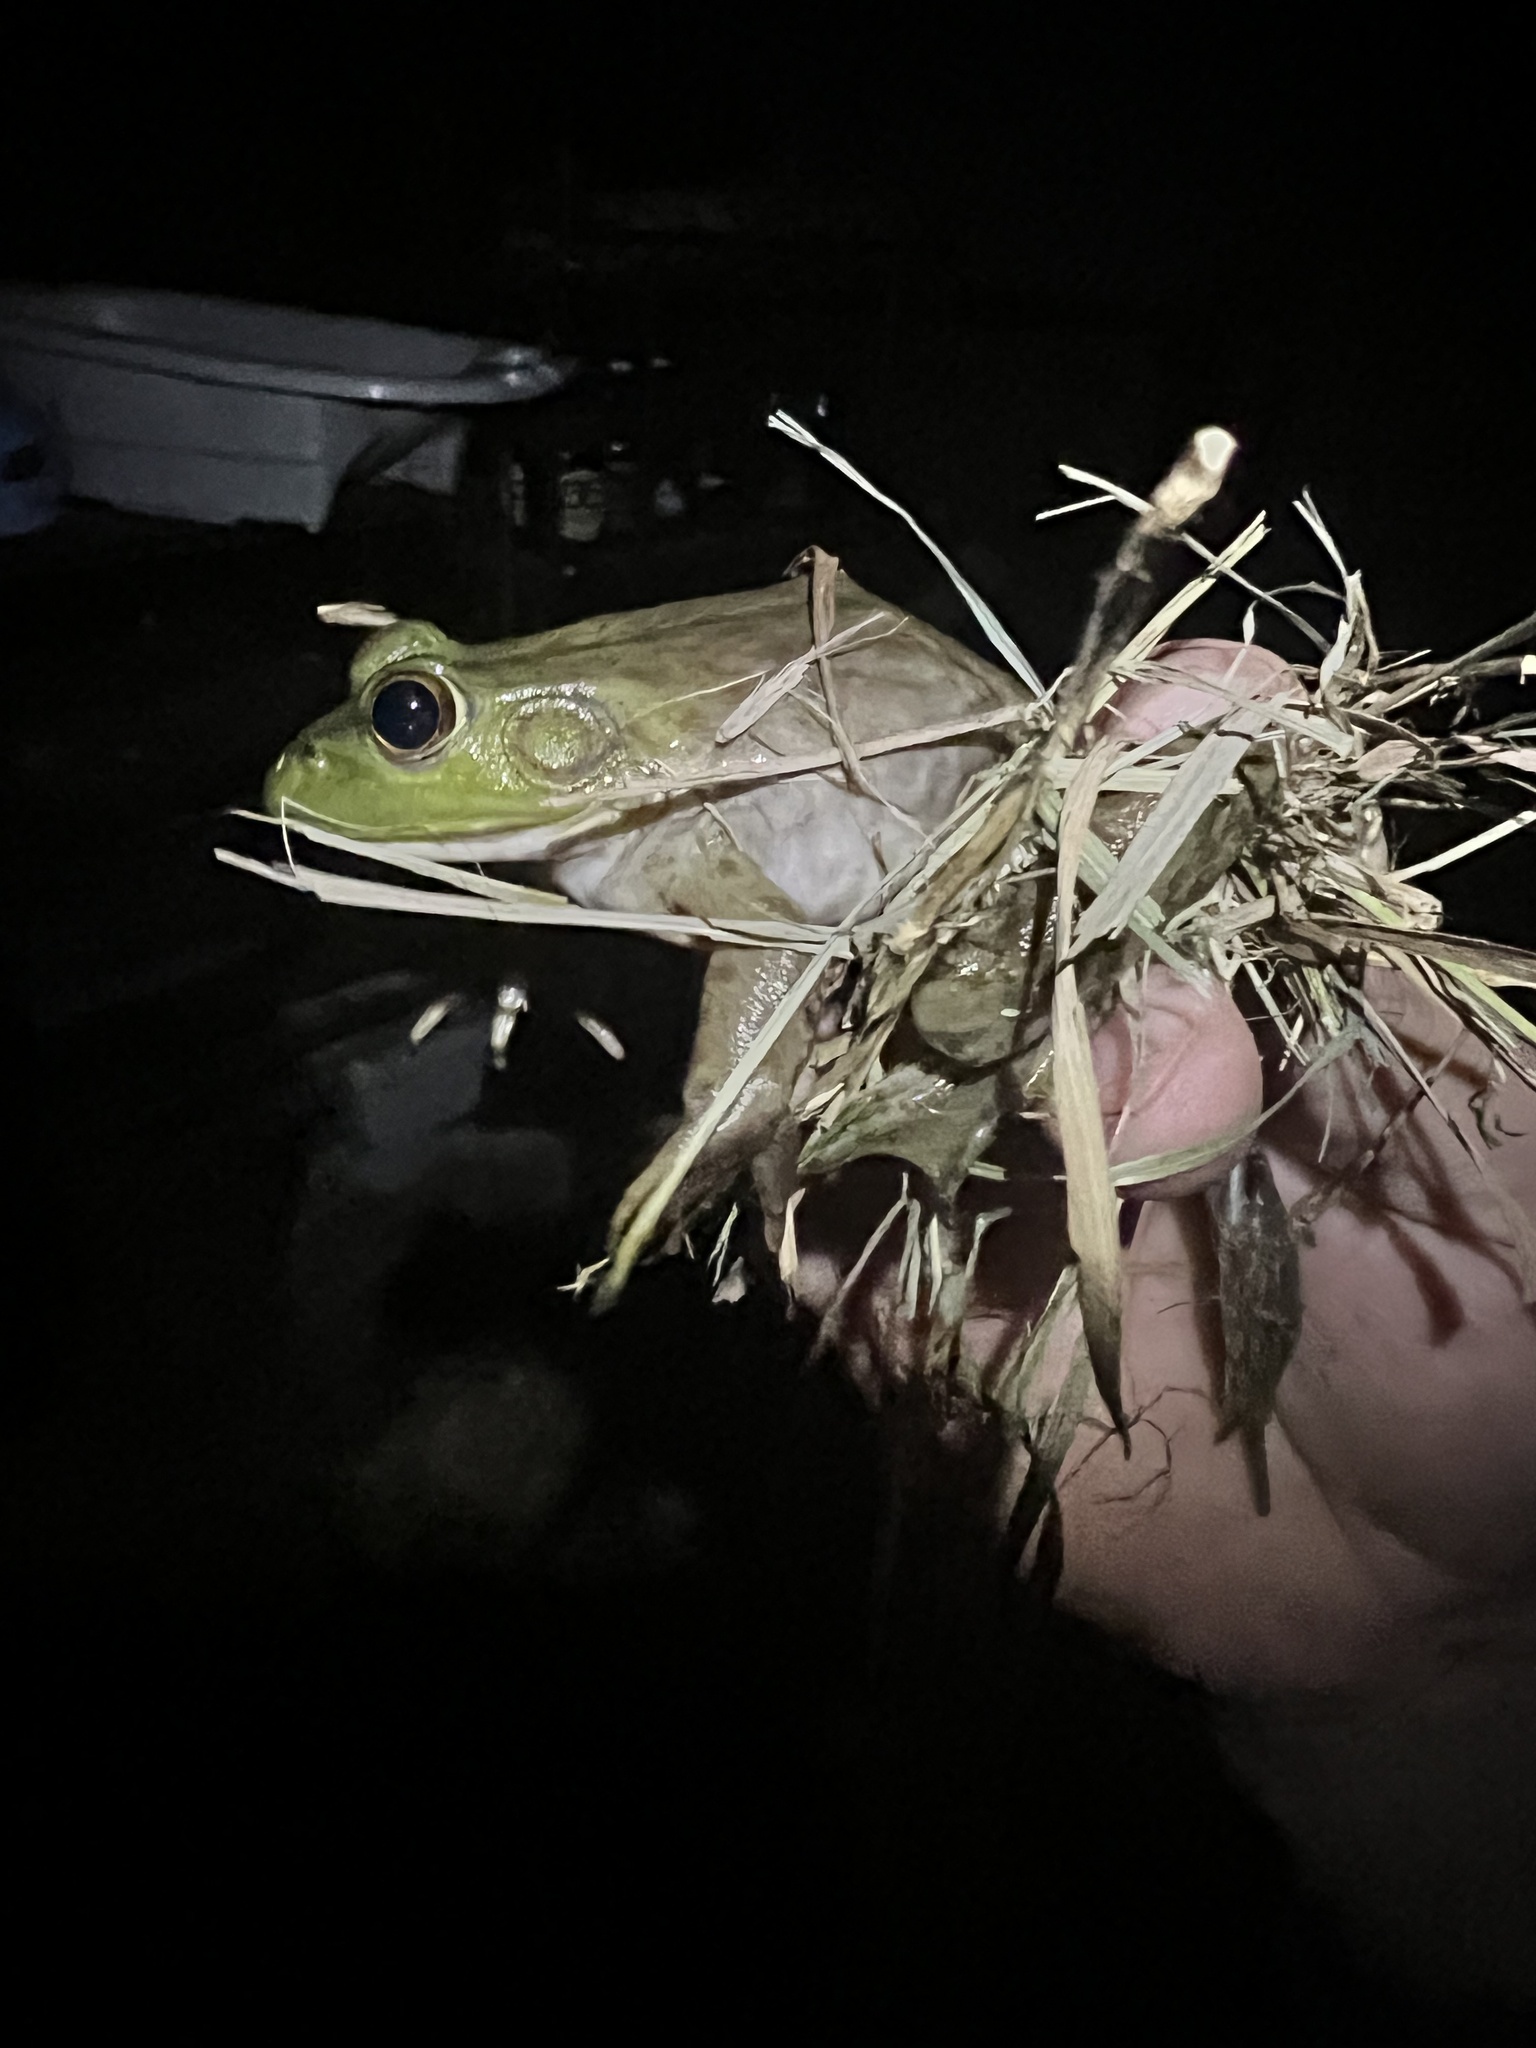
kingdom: Animalia
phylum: Chordata
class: Amphibia
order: Anura
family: Ranidae
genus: Lithobates
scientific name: Lithobates catesbeianus
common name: American bullfrog
